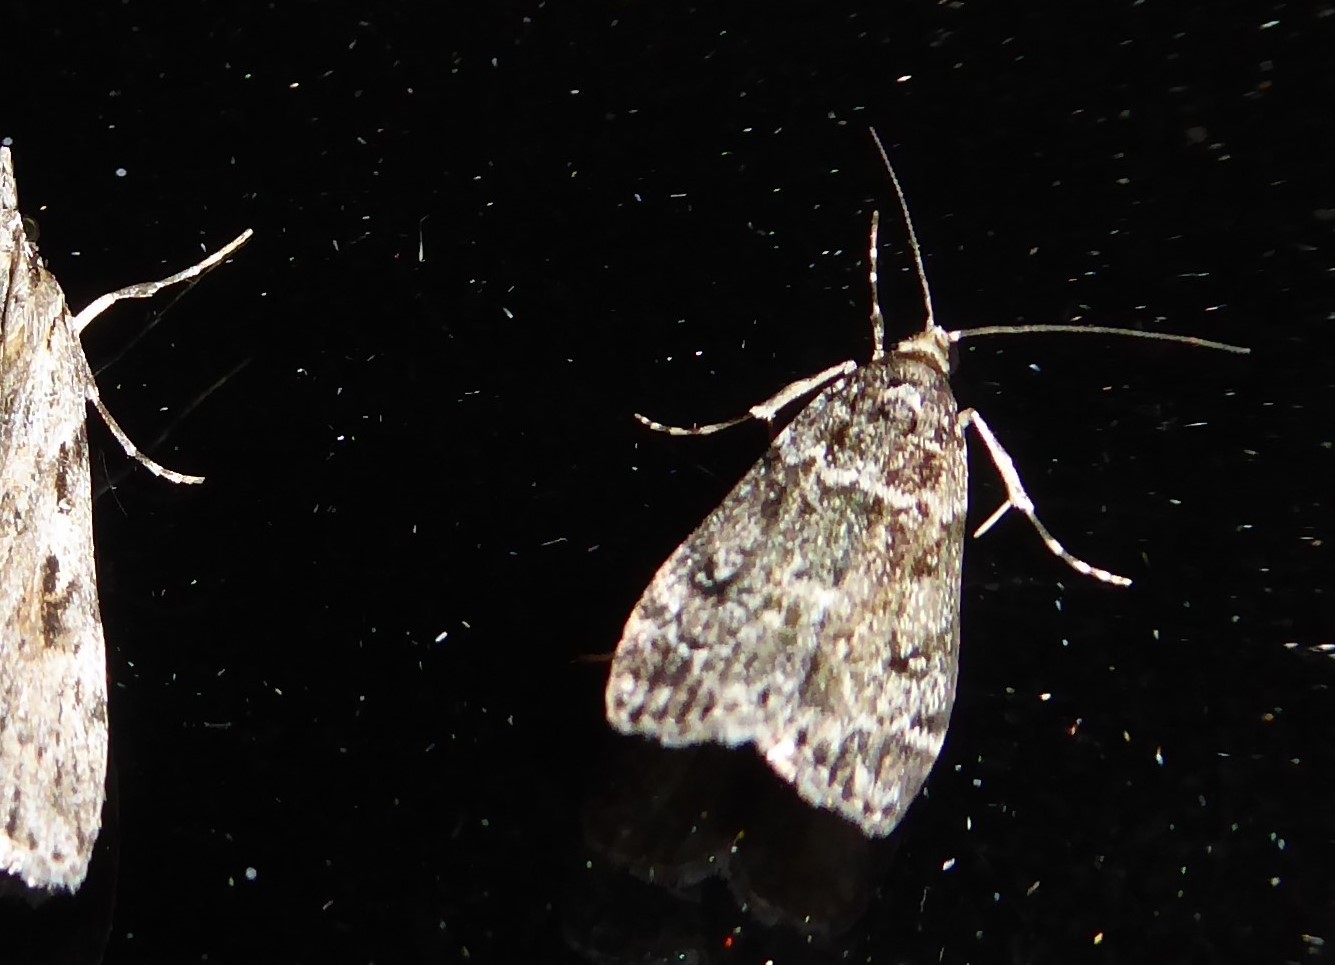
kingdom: Animalia
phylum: Arthropoda
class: Insecta
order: Lepidoptera
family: Crambidae
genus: Eudonia
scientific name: Eudonia philerga
